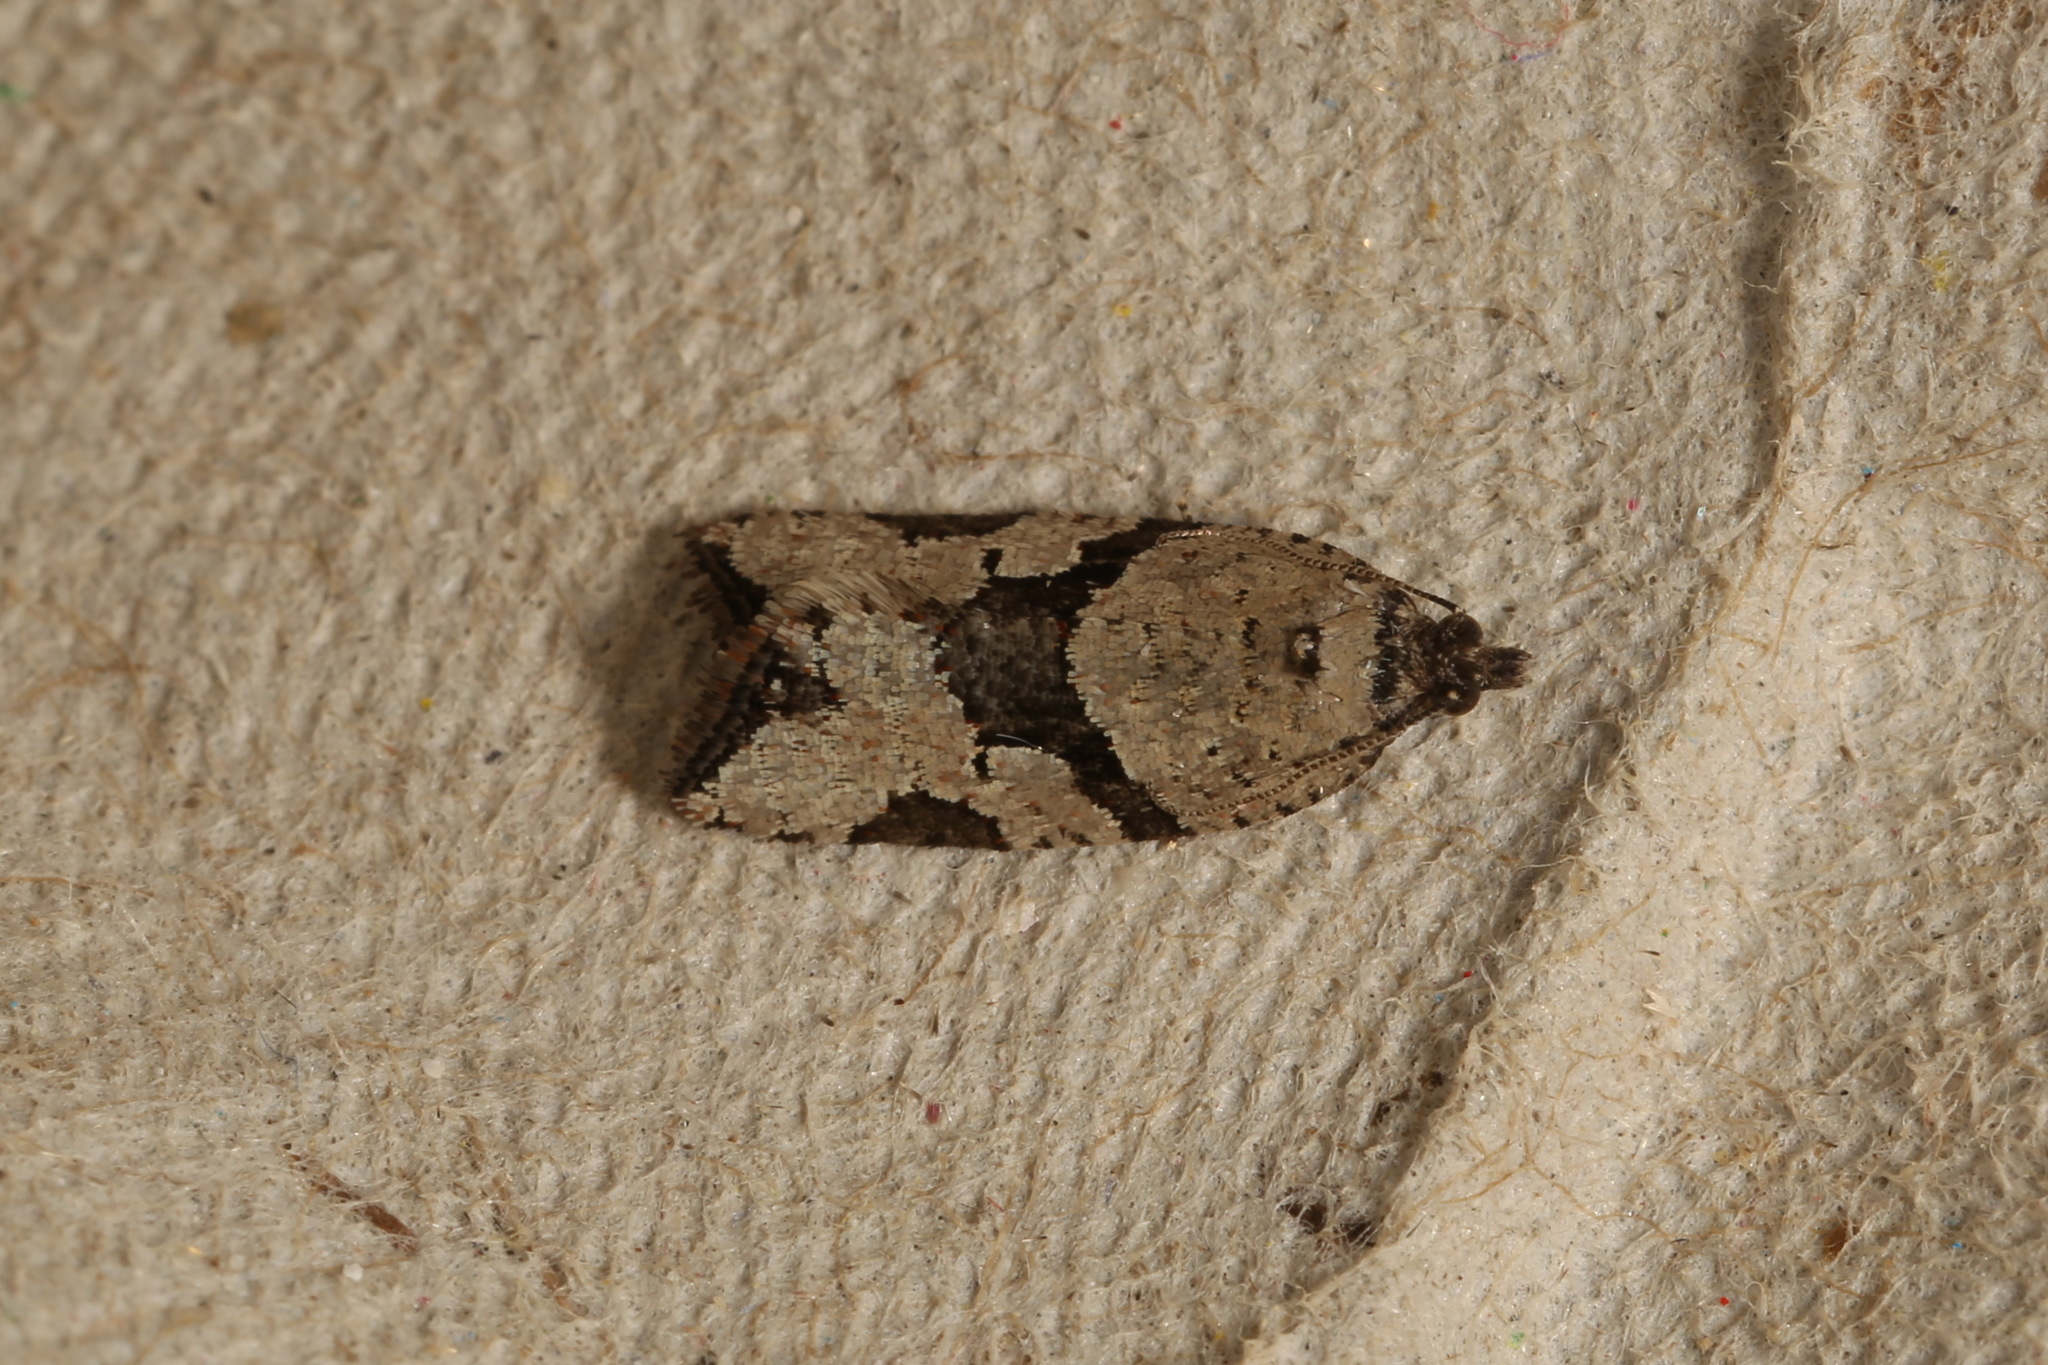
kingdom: Animalia
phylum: Arthropoda
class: Insecta
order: Lepidoptera
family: Tortricidae
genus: Sciaphila
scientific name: Sciaphila debiliana
